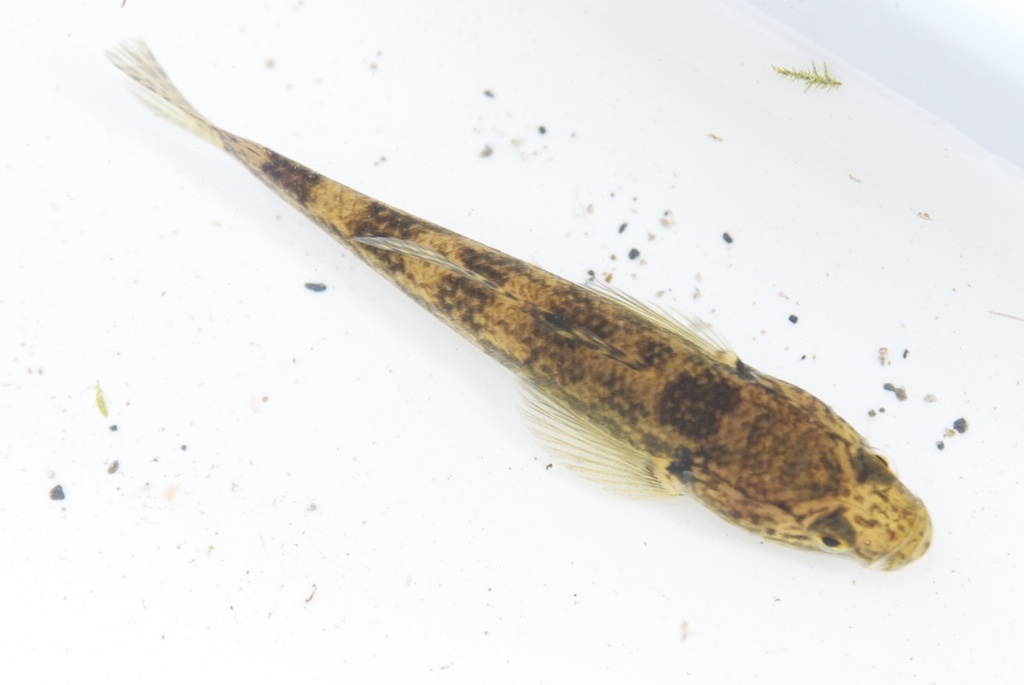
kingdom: Animalia
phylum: Chordata
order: Perciformes
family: Eleotridae
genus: Gobiomorphus
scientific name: Gobiomorphus cotidianus
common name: Common bully
